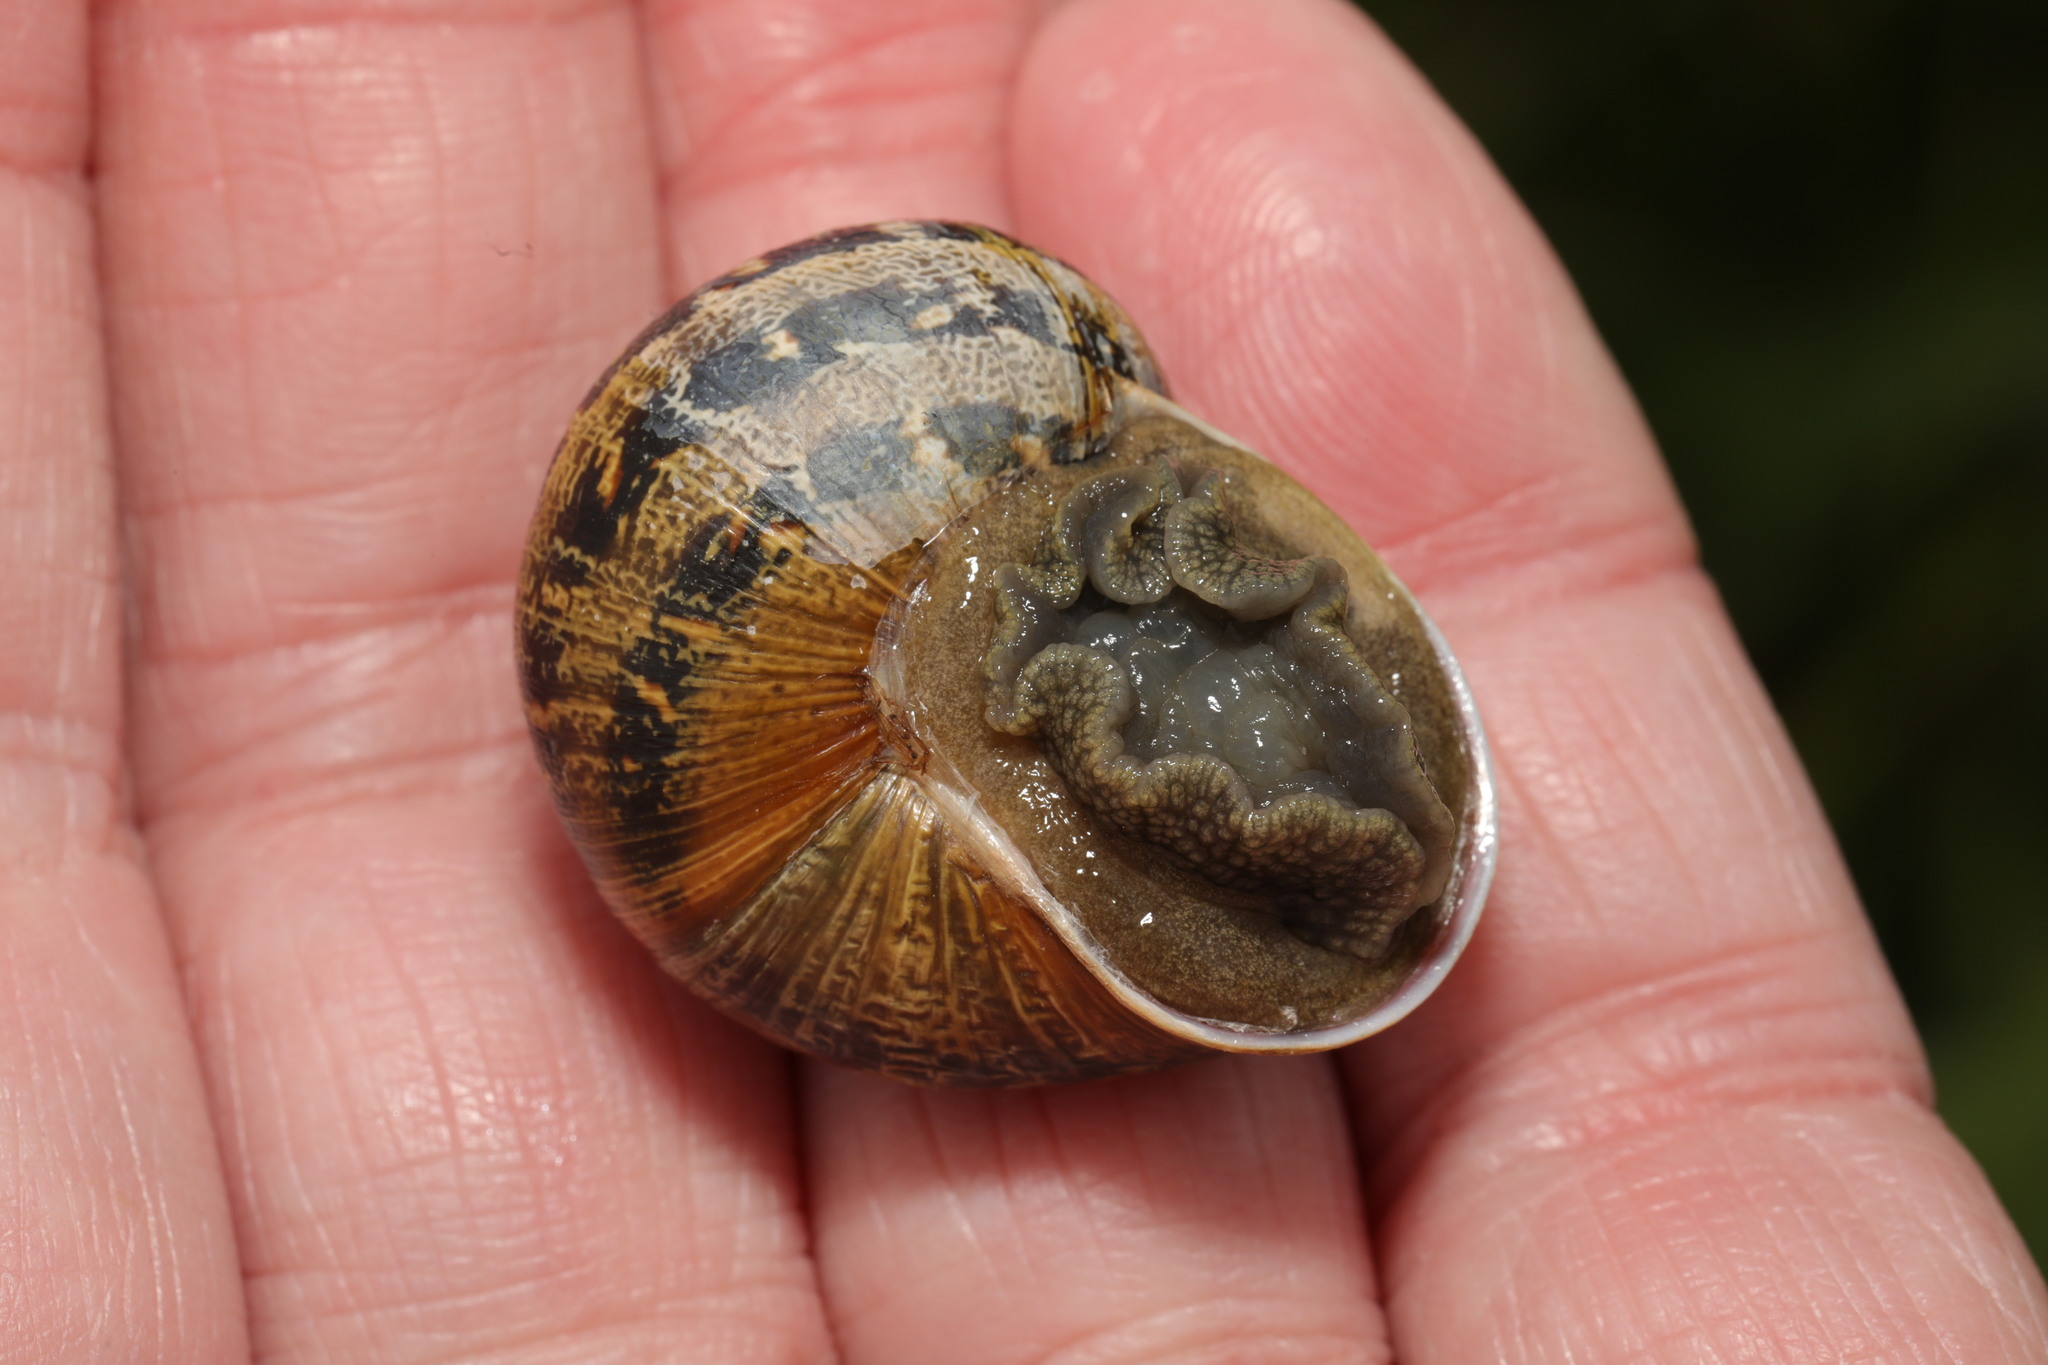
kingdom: Animalia
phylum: Mollusca
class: Gastropoda
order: Stylommatophora
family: Helicidae
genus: Cornu
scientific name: Cornu aspersum
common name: Brown garden snail
